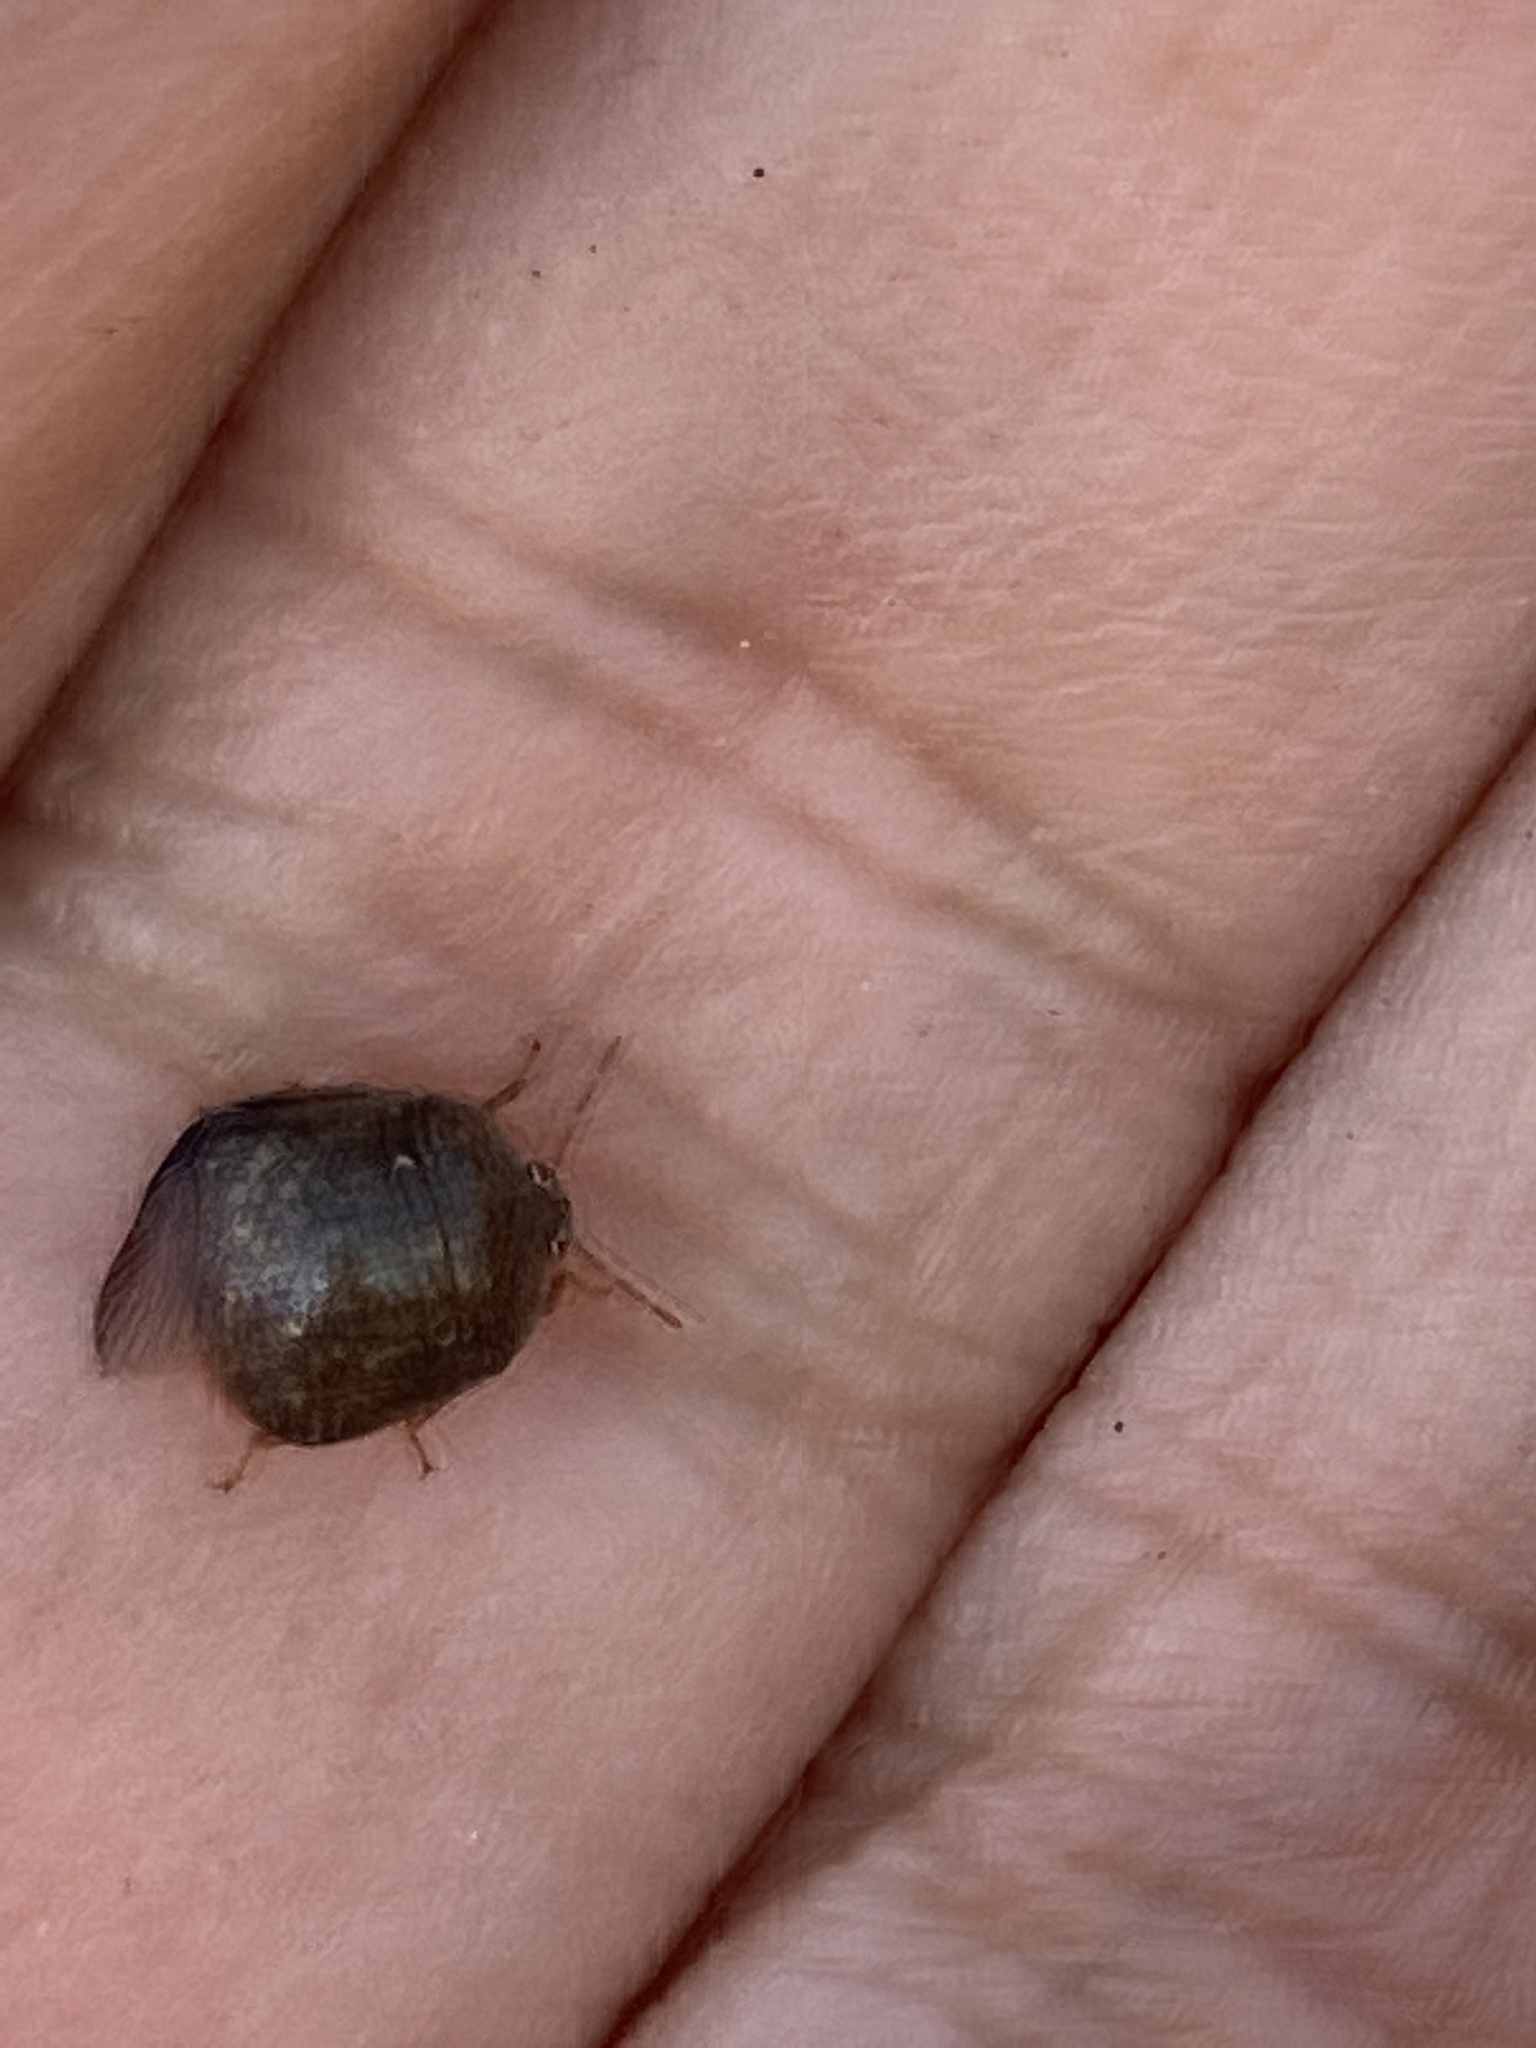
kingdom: Animalia
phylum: Arthropoda
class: Insecta
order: Hemiptera
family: Plataspidae
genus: Megacopta
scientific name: Megacopta cribraria
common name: Bean plataspid
